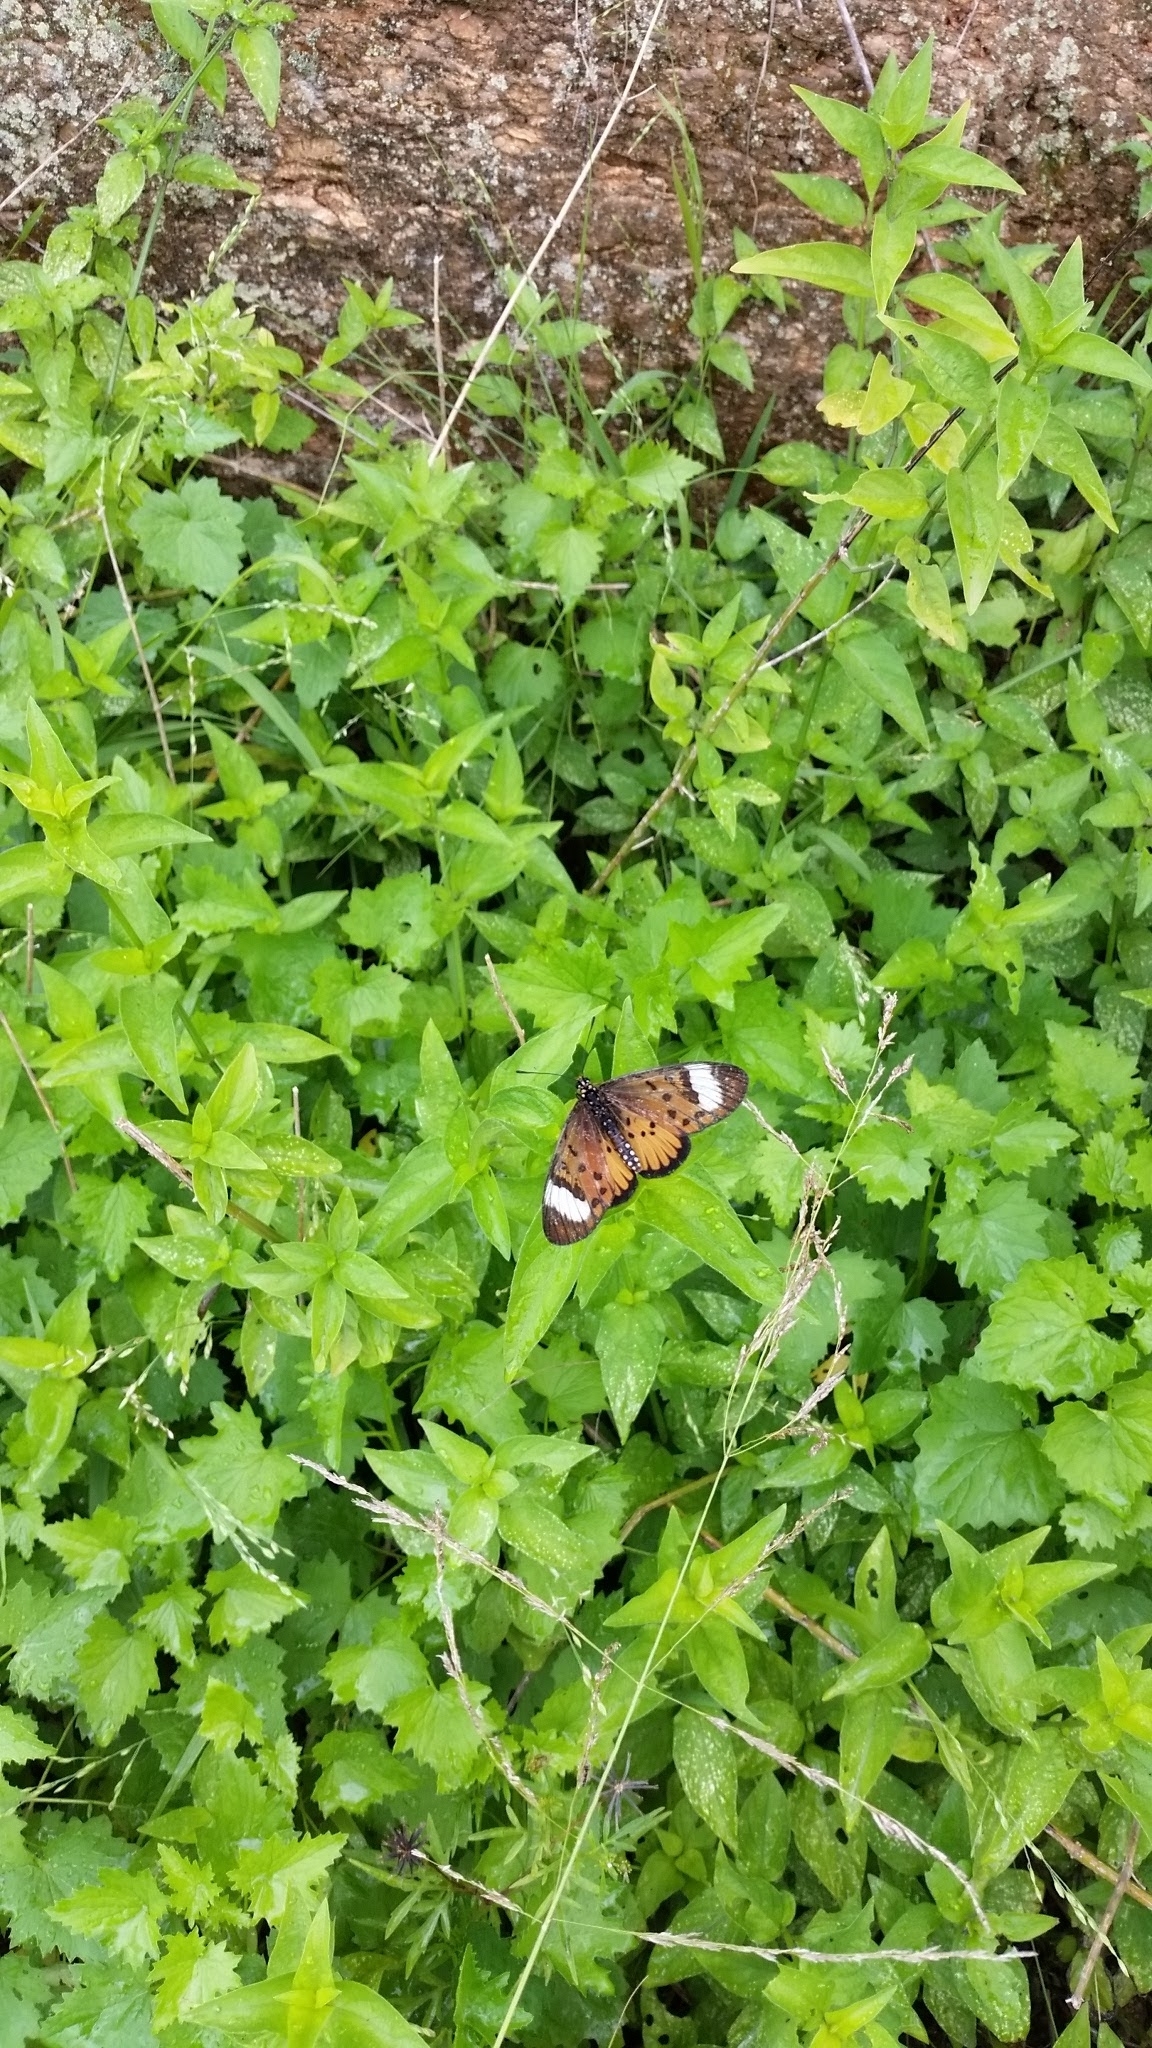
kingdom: Animalia
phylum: Arthropoda
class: Insecta
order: Lepidoptera
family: Nymphalidae
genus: Rubraea
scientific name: Rubraea
